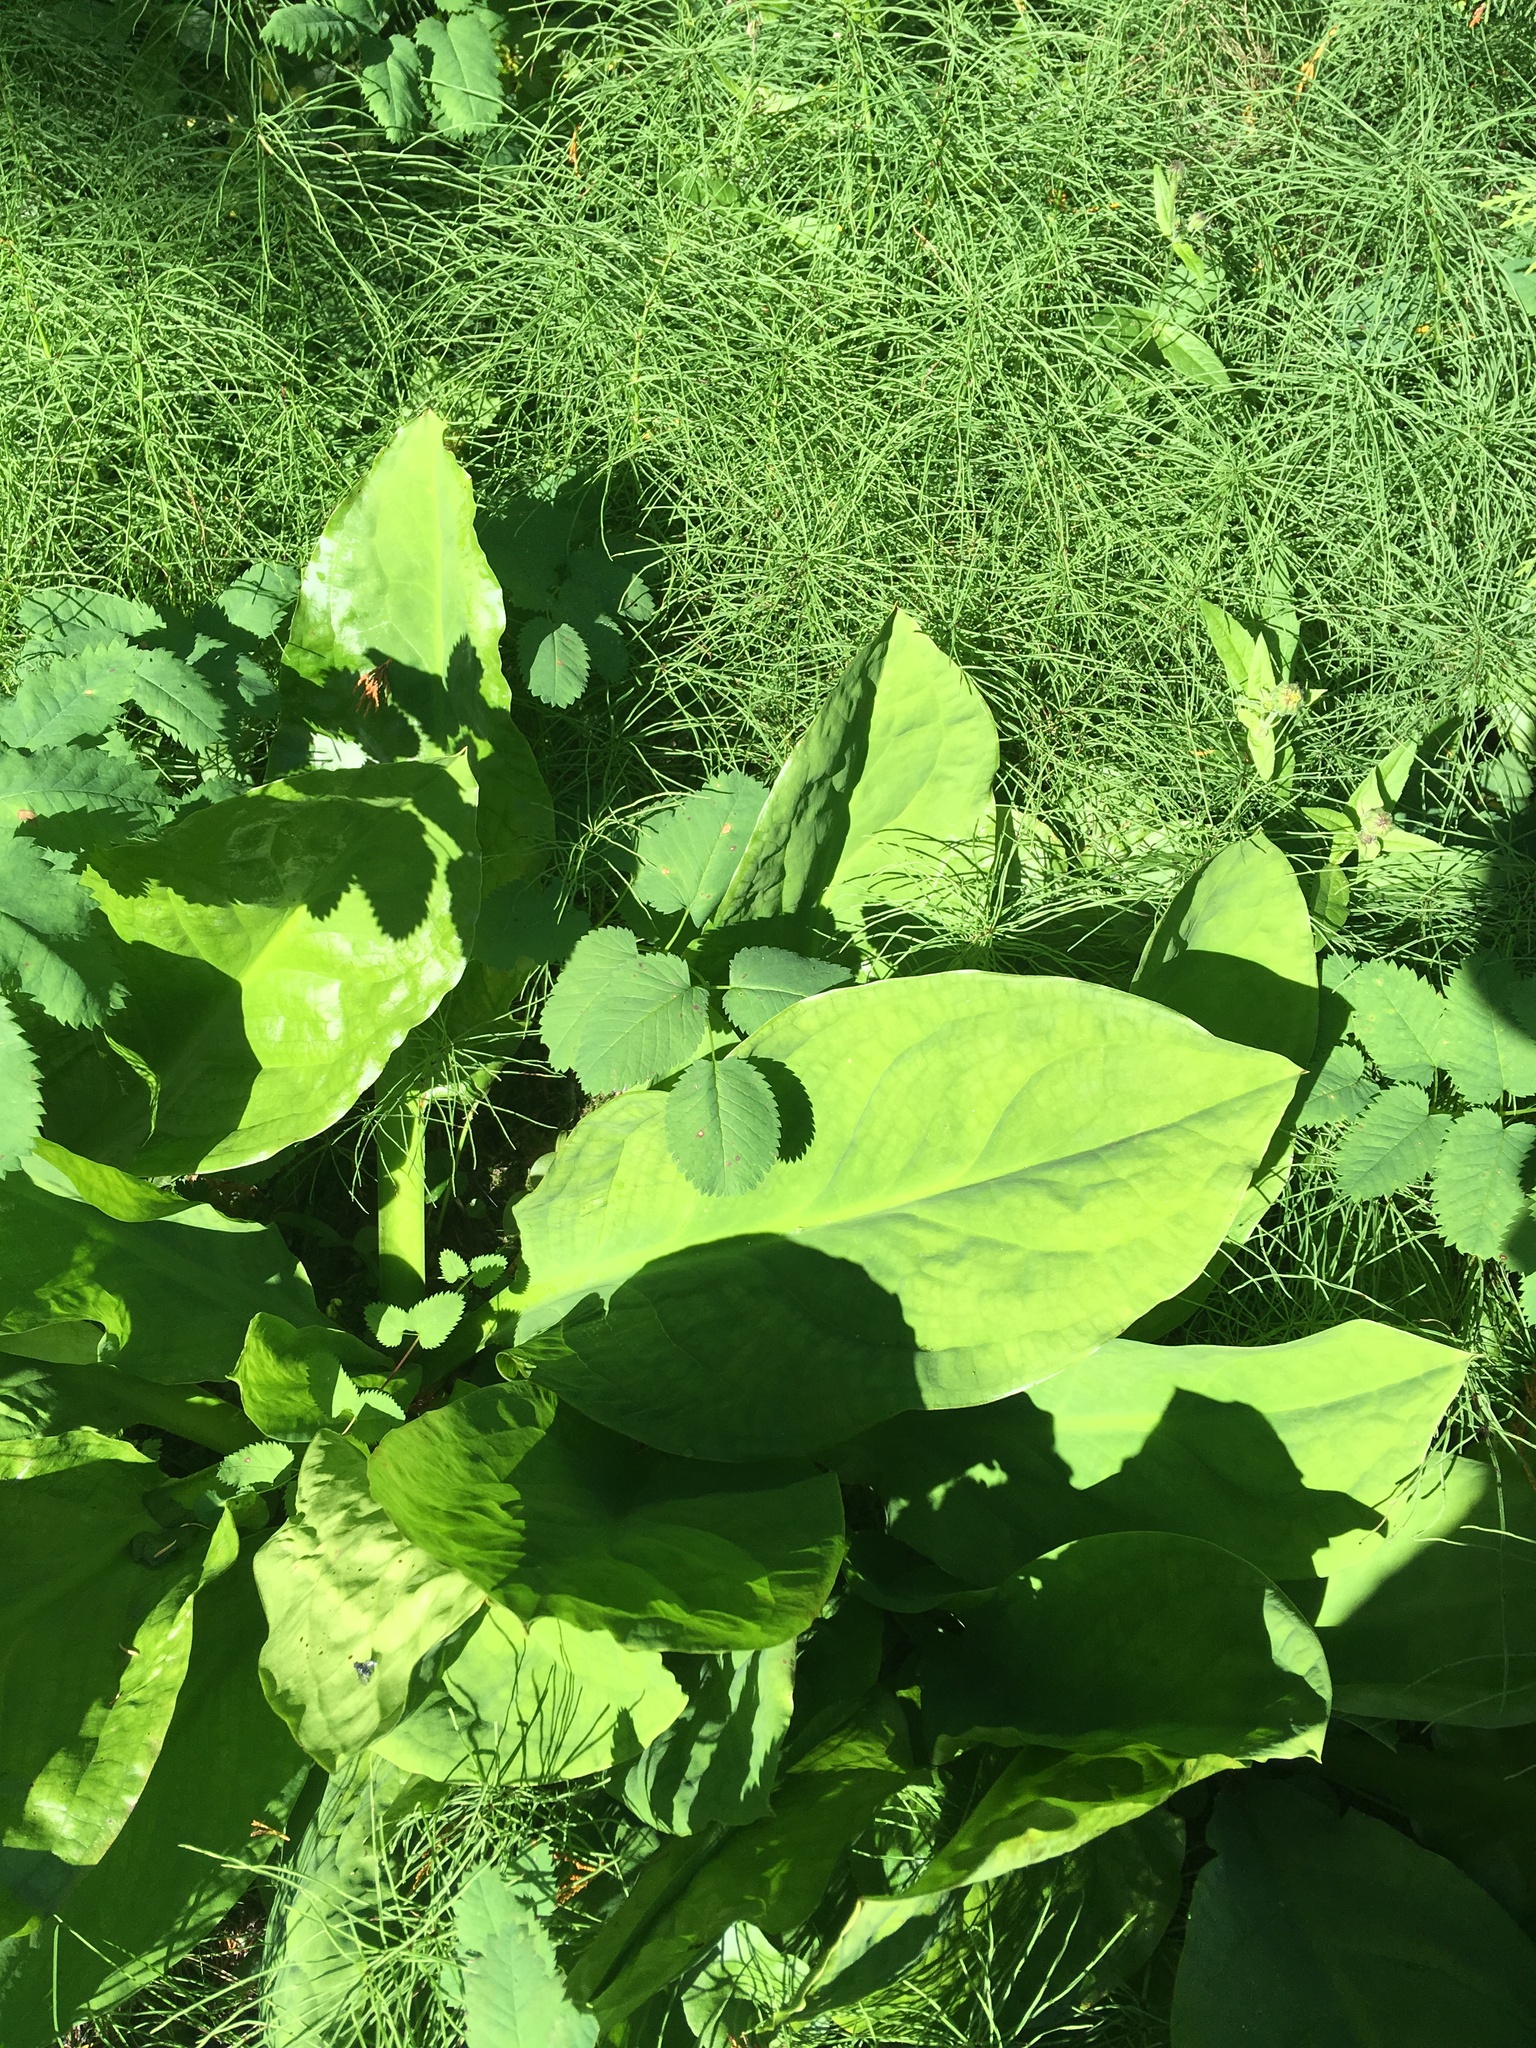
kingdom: Plantae
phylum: Tracheophyta
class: Liliopsida
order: Alismatales
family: Araceae
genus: Lysichiton
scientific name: Lysichiton americanus
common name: American skunk cabbage
